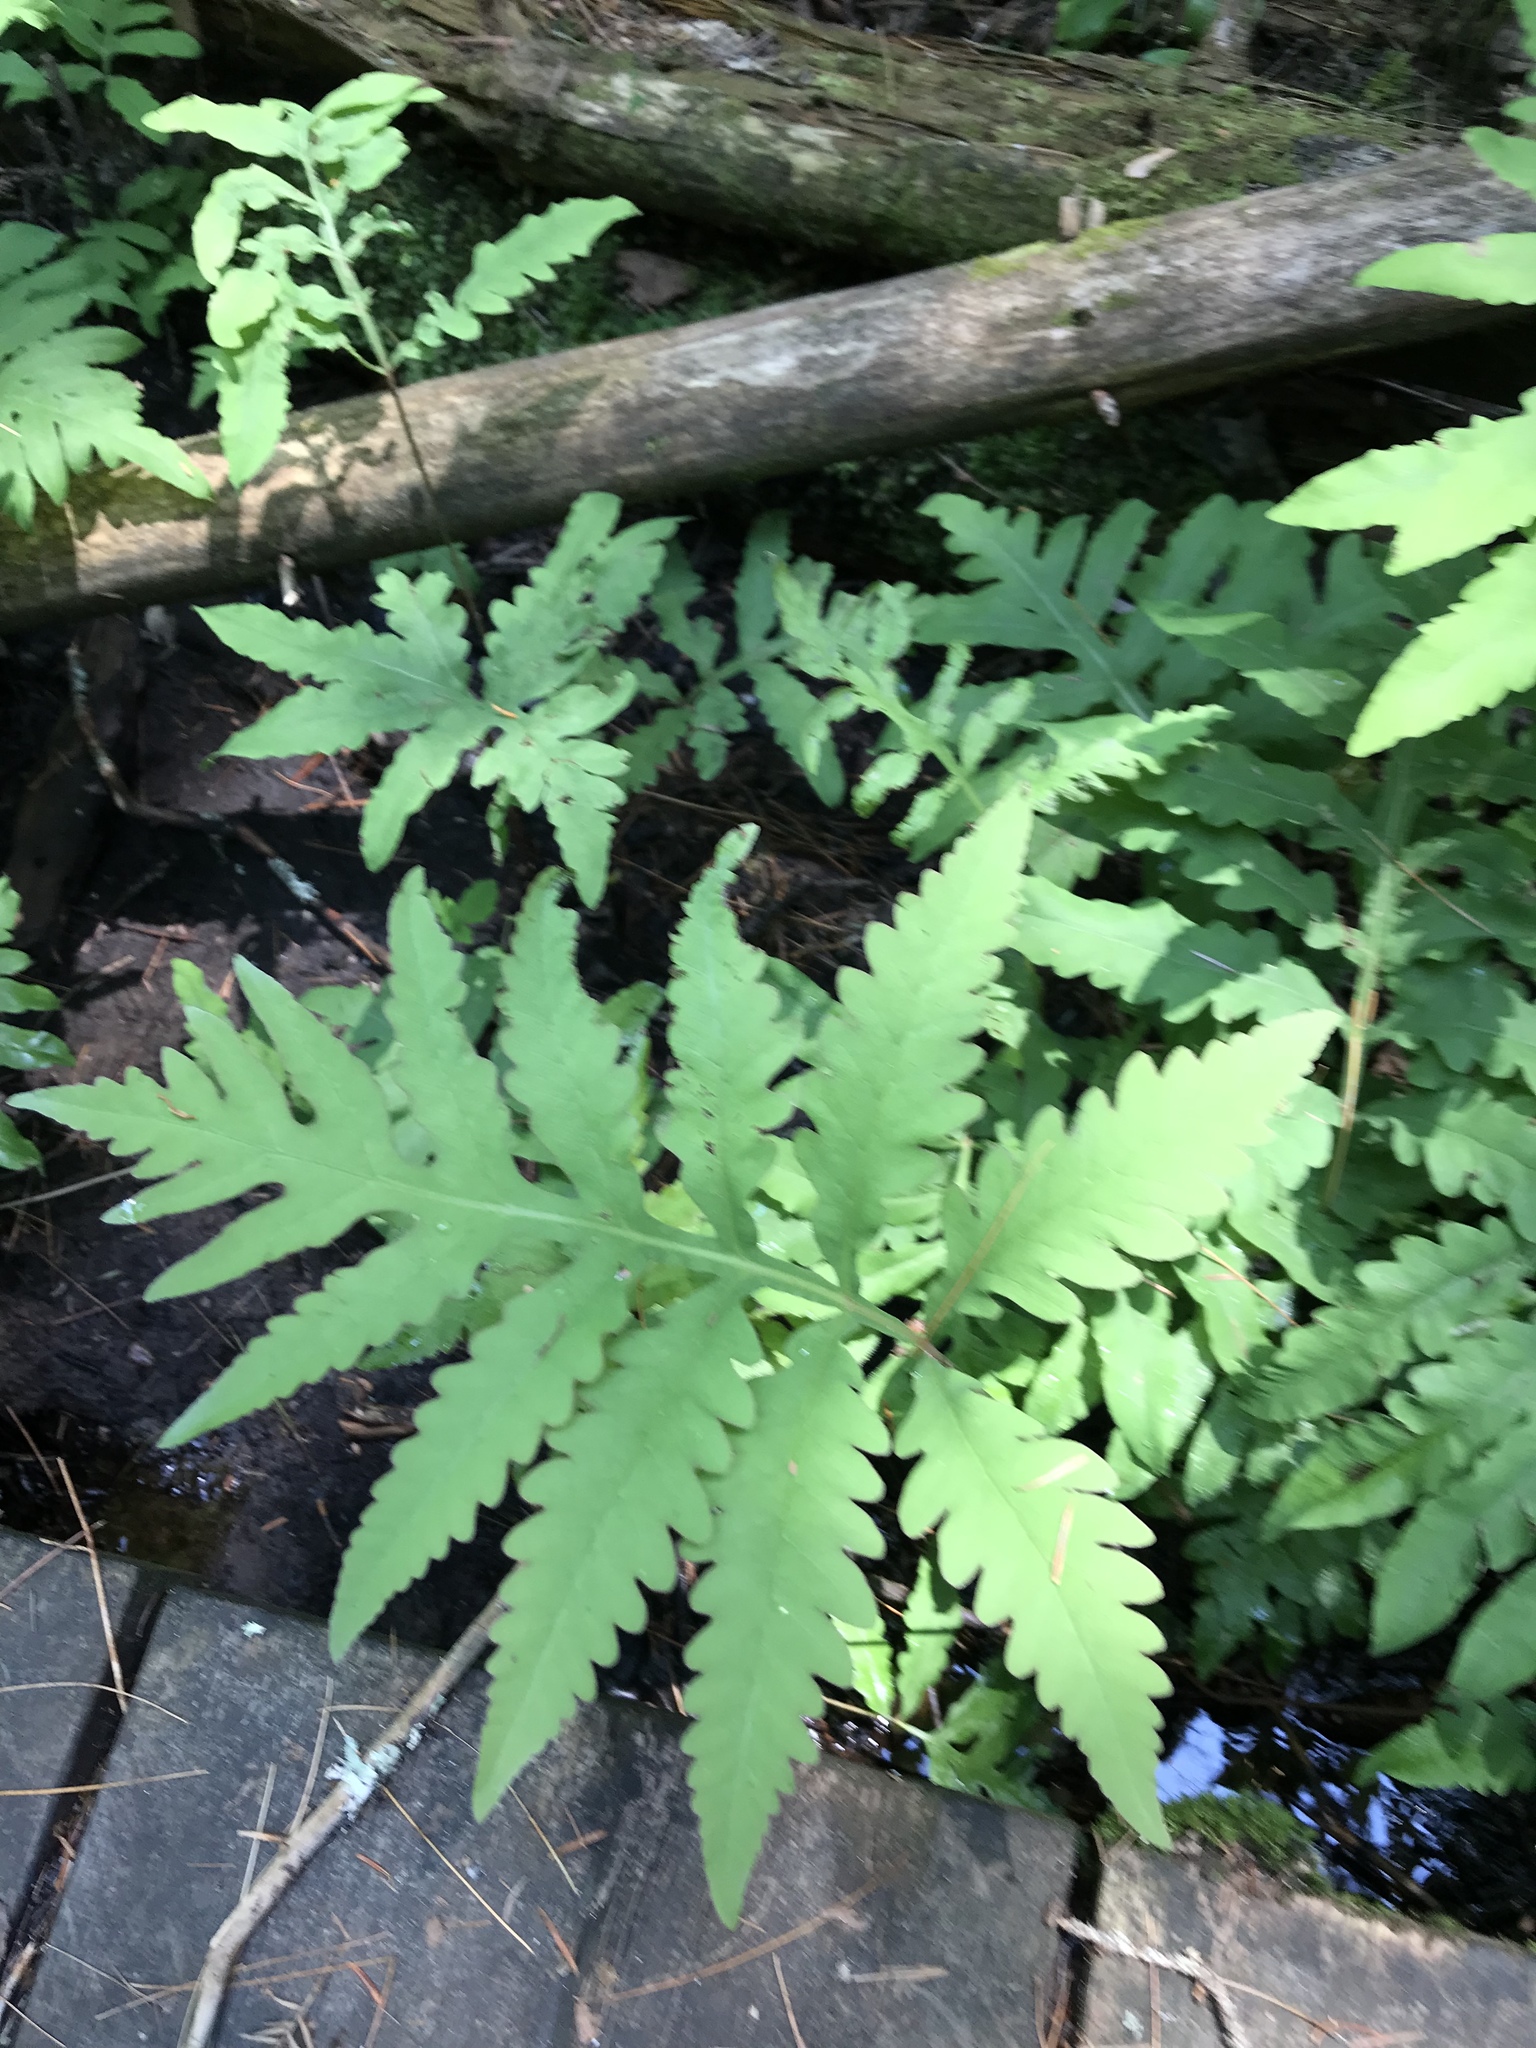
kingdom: Plantae
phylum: Tracheophyta
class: Polypodiopsida
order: Polypodiales
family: Onocleaceae
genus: Onoclea
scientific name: Onoclea sensibilis
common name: Sensitive fern
